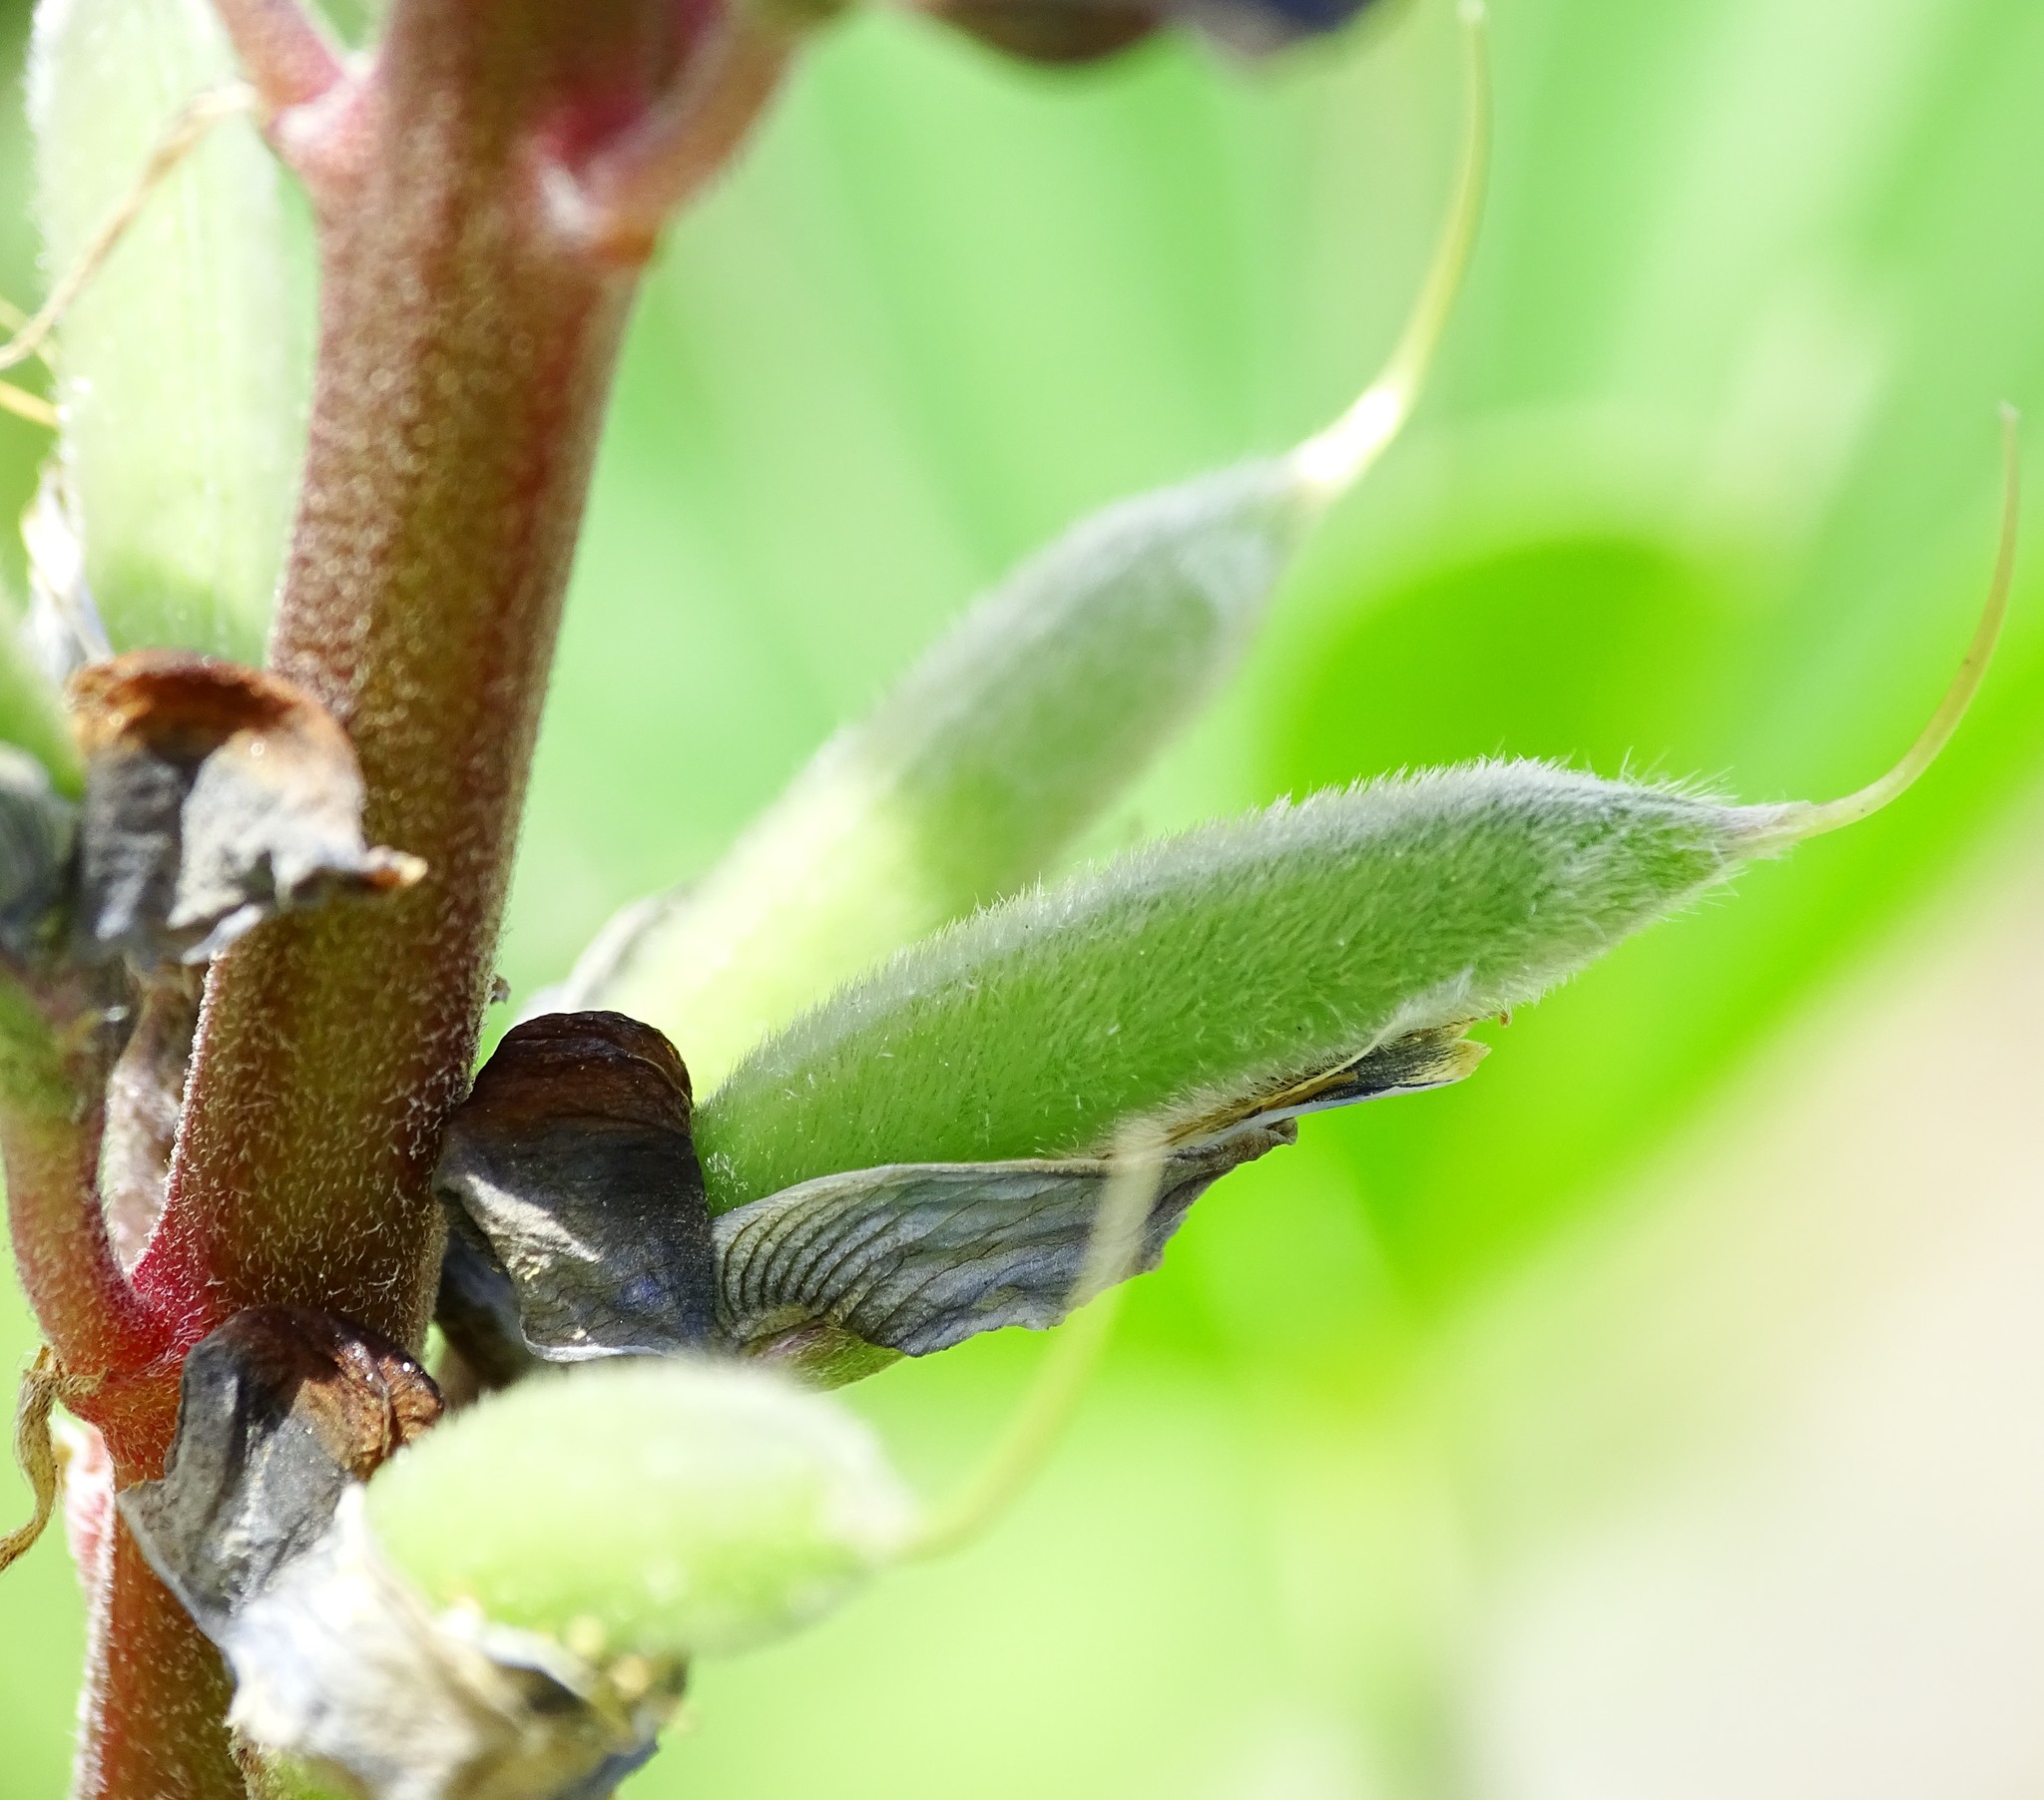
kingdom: Plantae
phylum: Tracheophyta
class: Magnoliopsida
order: Fabales
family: Fabaceae
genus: Lupinus
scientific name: Lupinus succulentus
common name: Arroyo lupine
